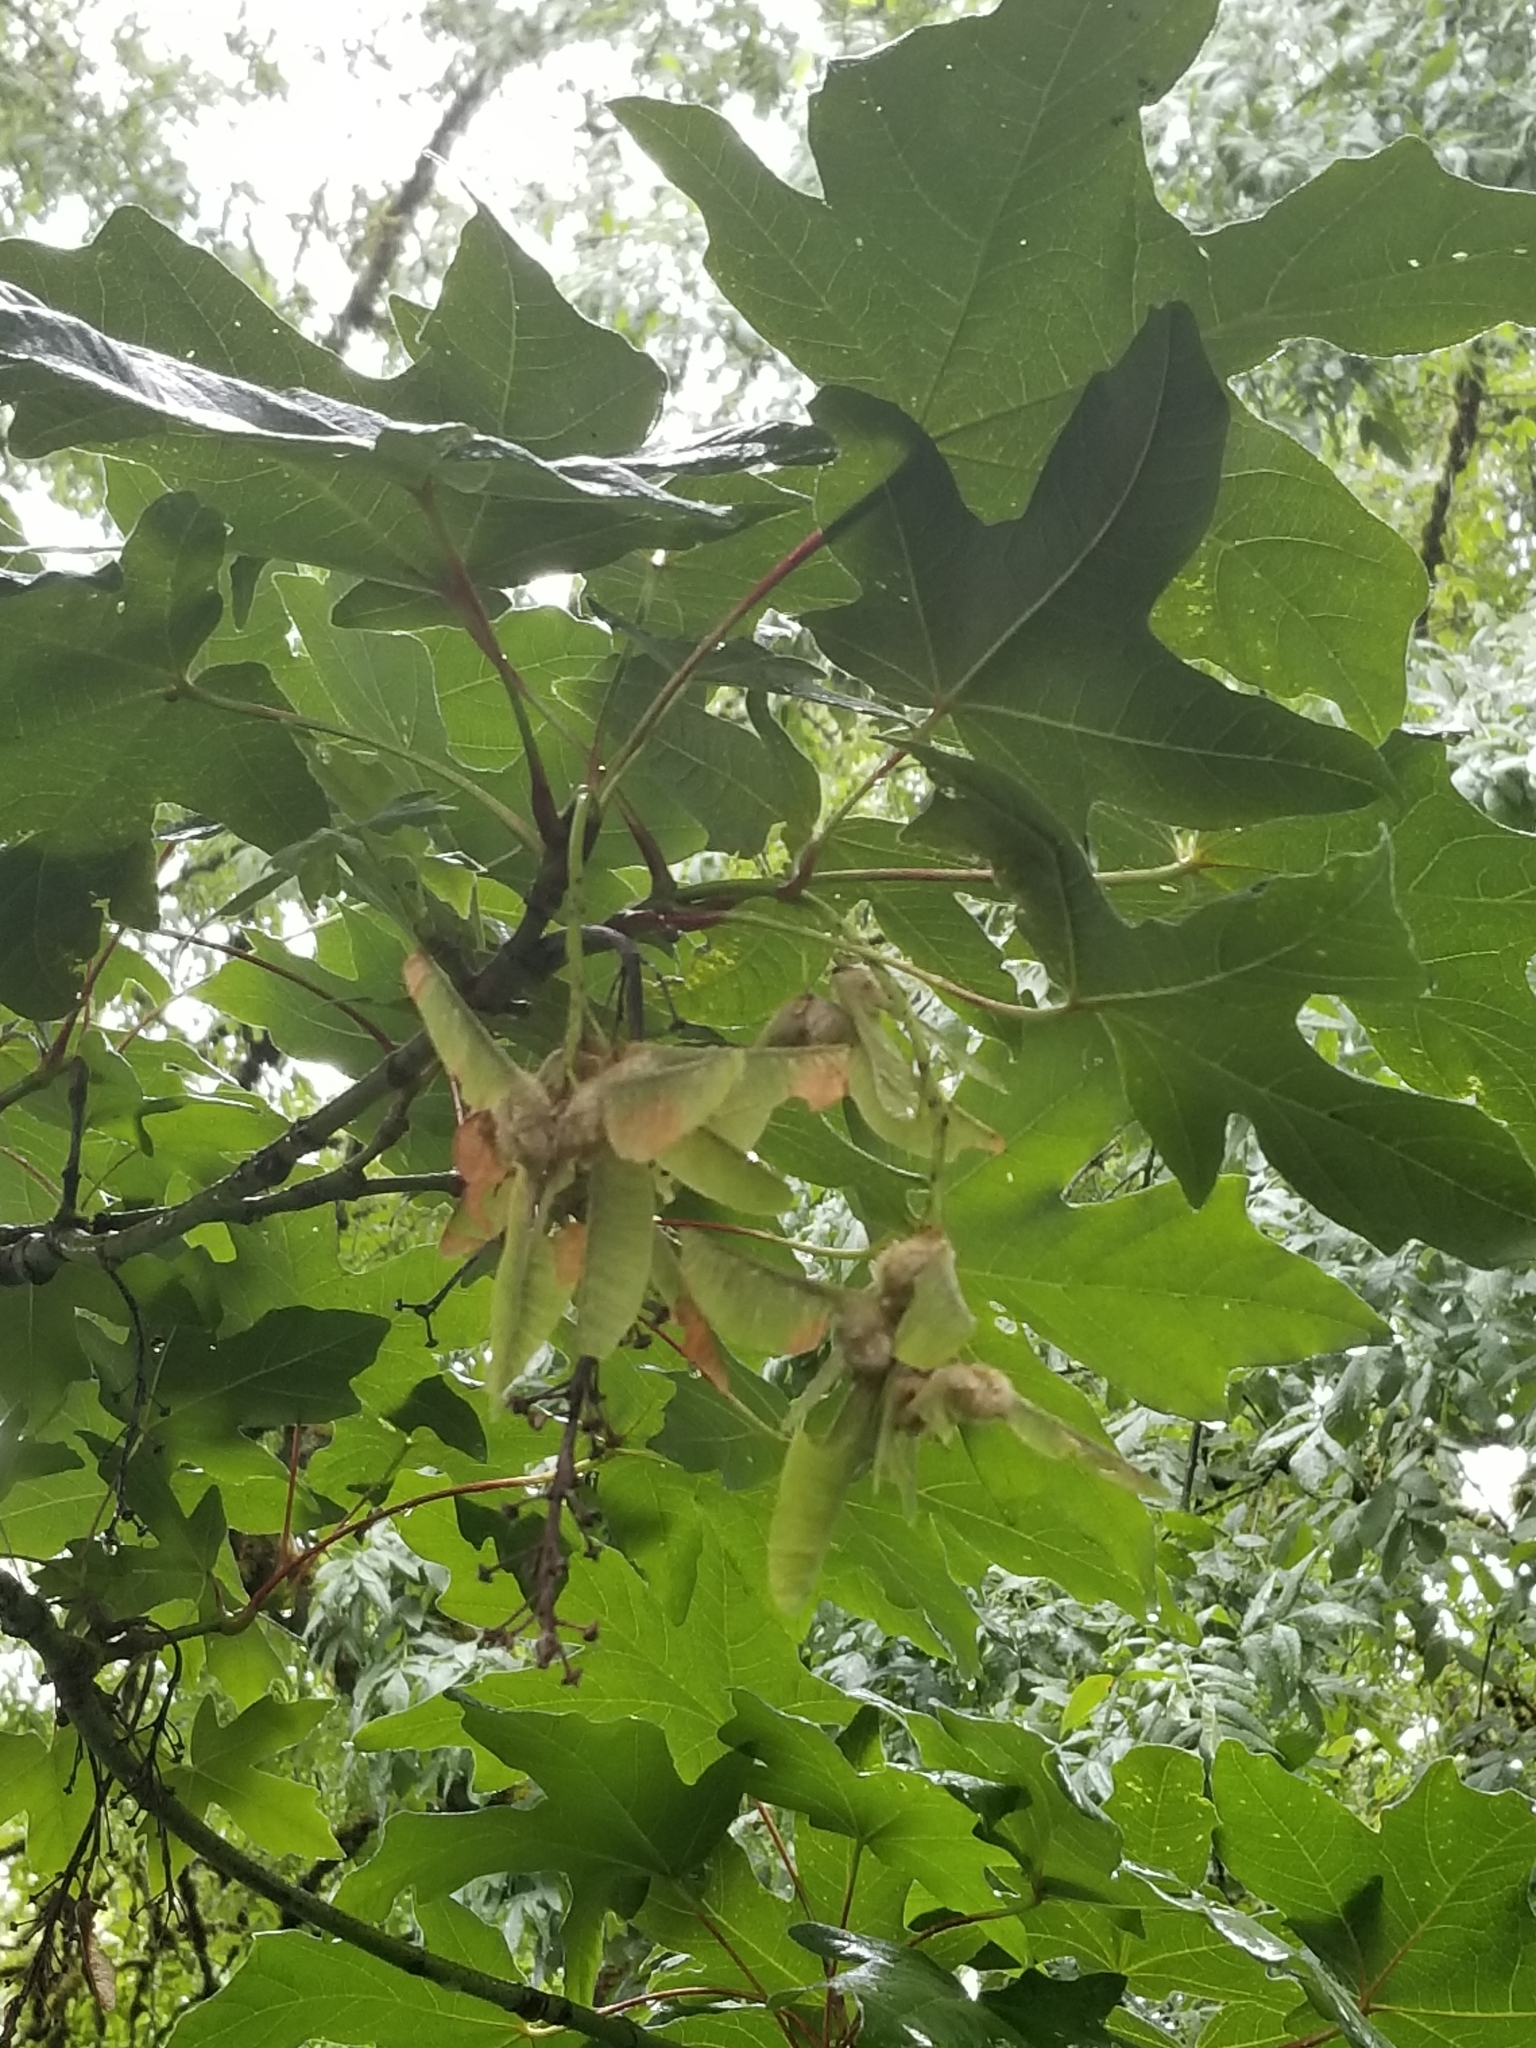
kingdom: Plantae
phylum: Tracheophyta
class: Magnoliopsida
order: Sapindales
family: Sapindaceae
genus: Acer
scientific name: Acer macrophyllum
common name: Oregon maple
